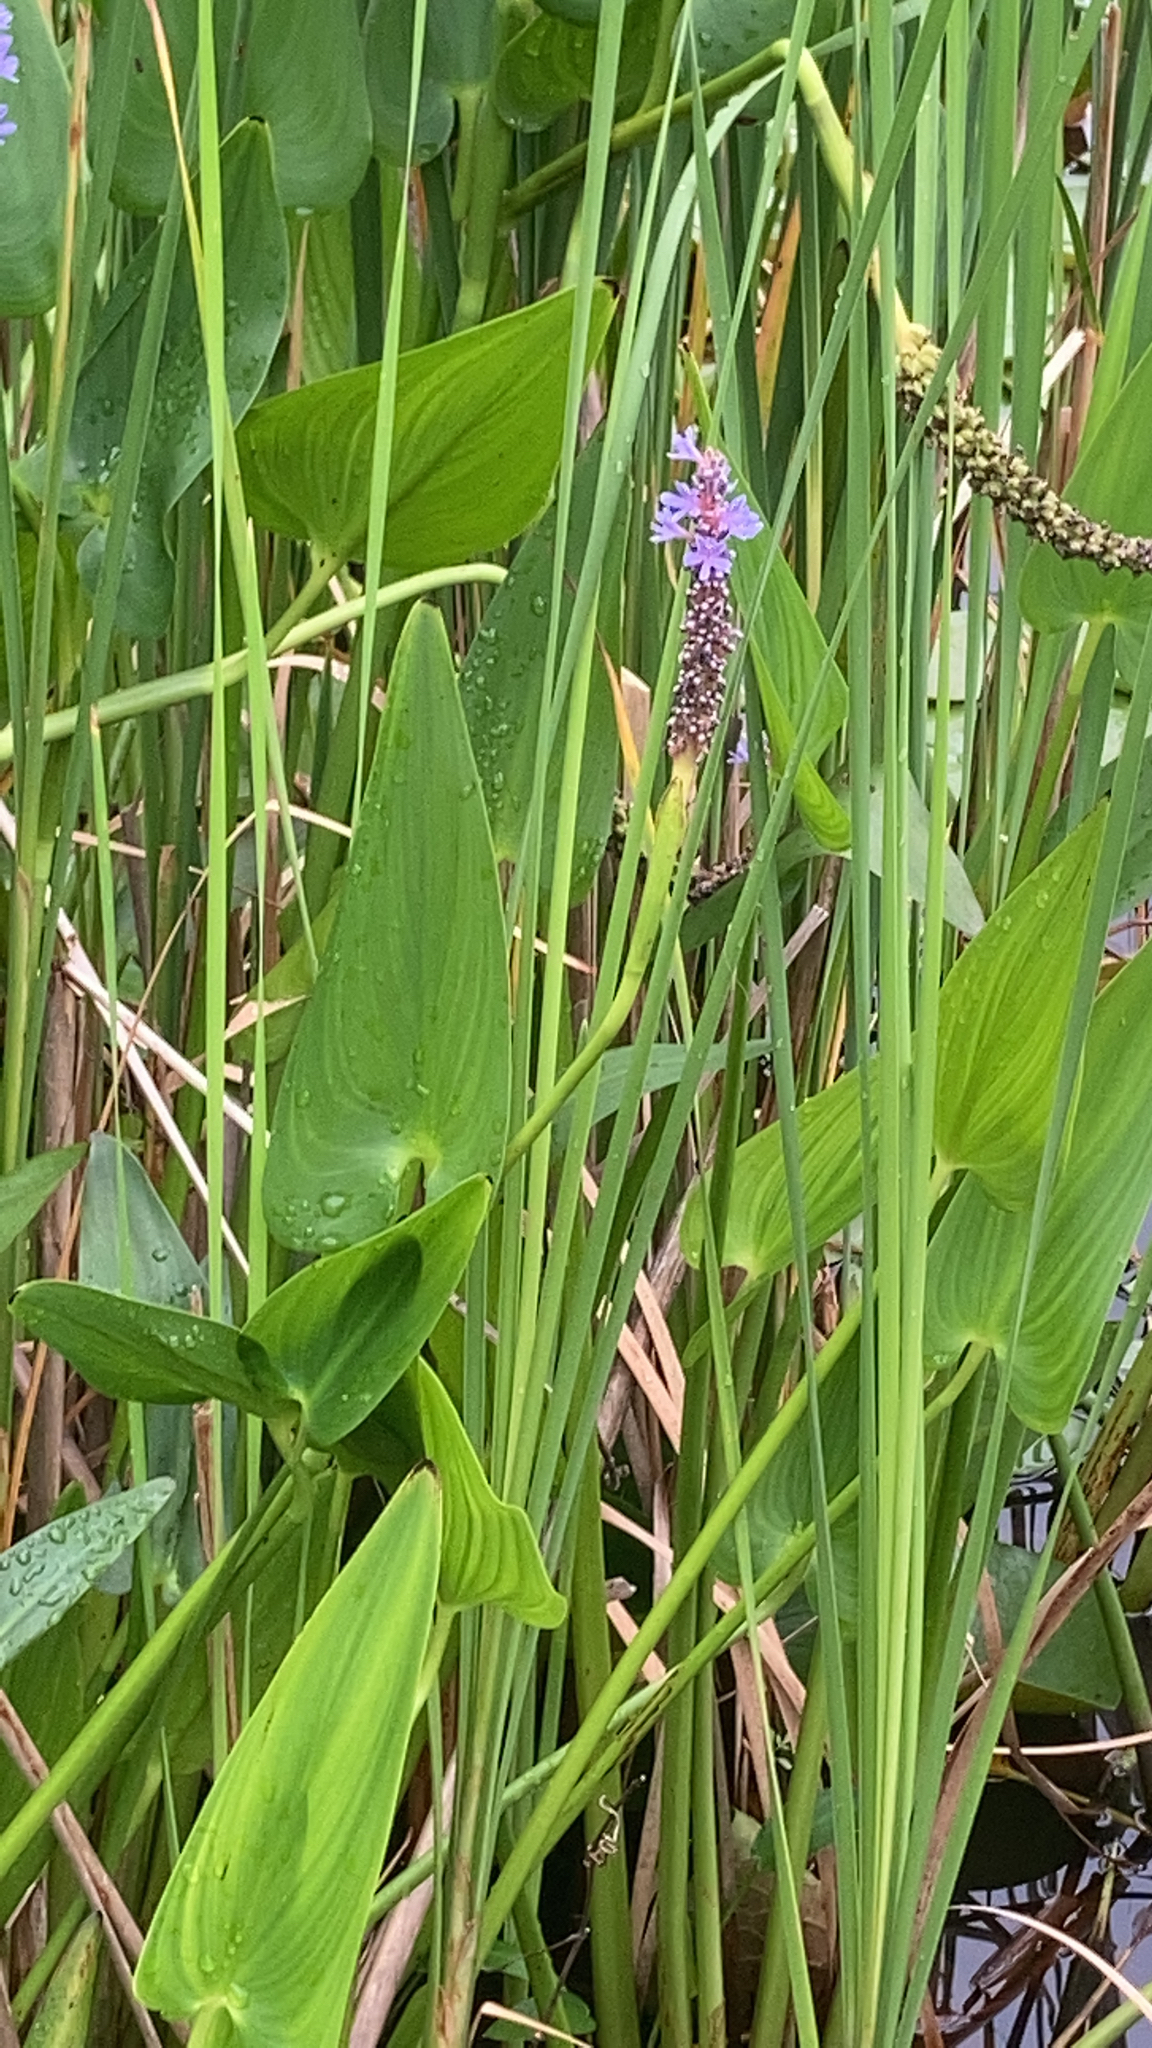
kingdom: Plantae
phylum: Tracheophyta
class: Liliopsida
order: Commelinales
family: Pontederiaceae
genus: Pontederia
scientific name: Pontederia cordata
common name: Pickerelweed
